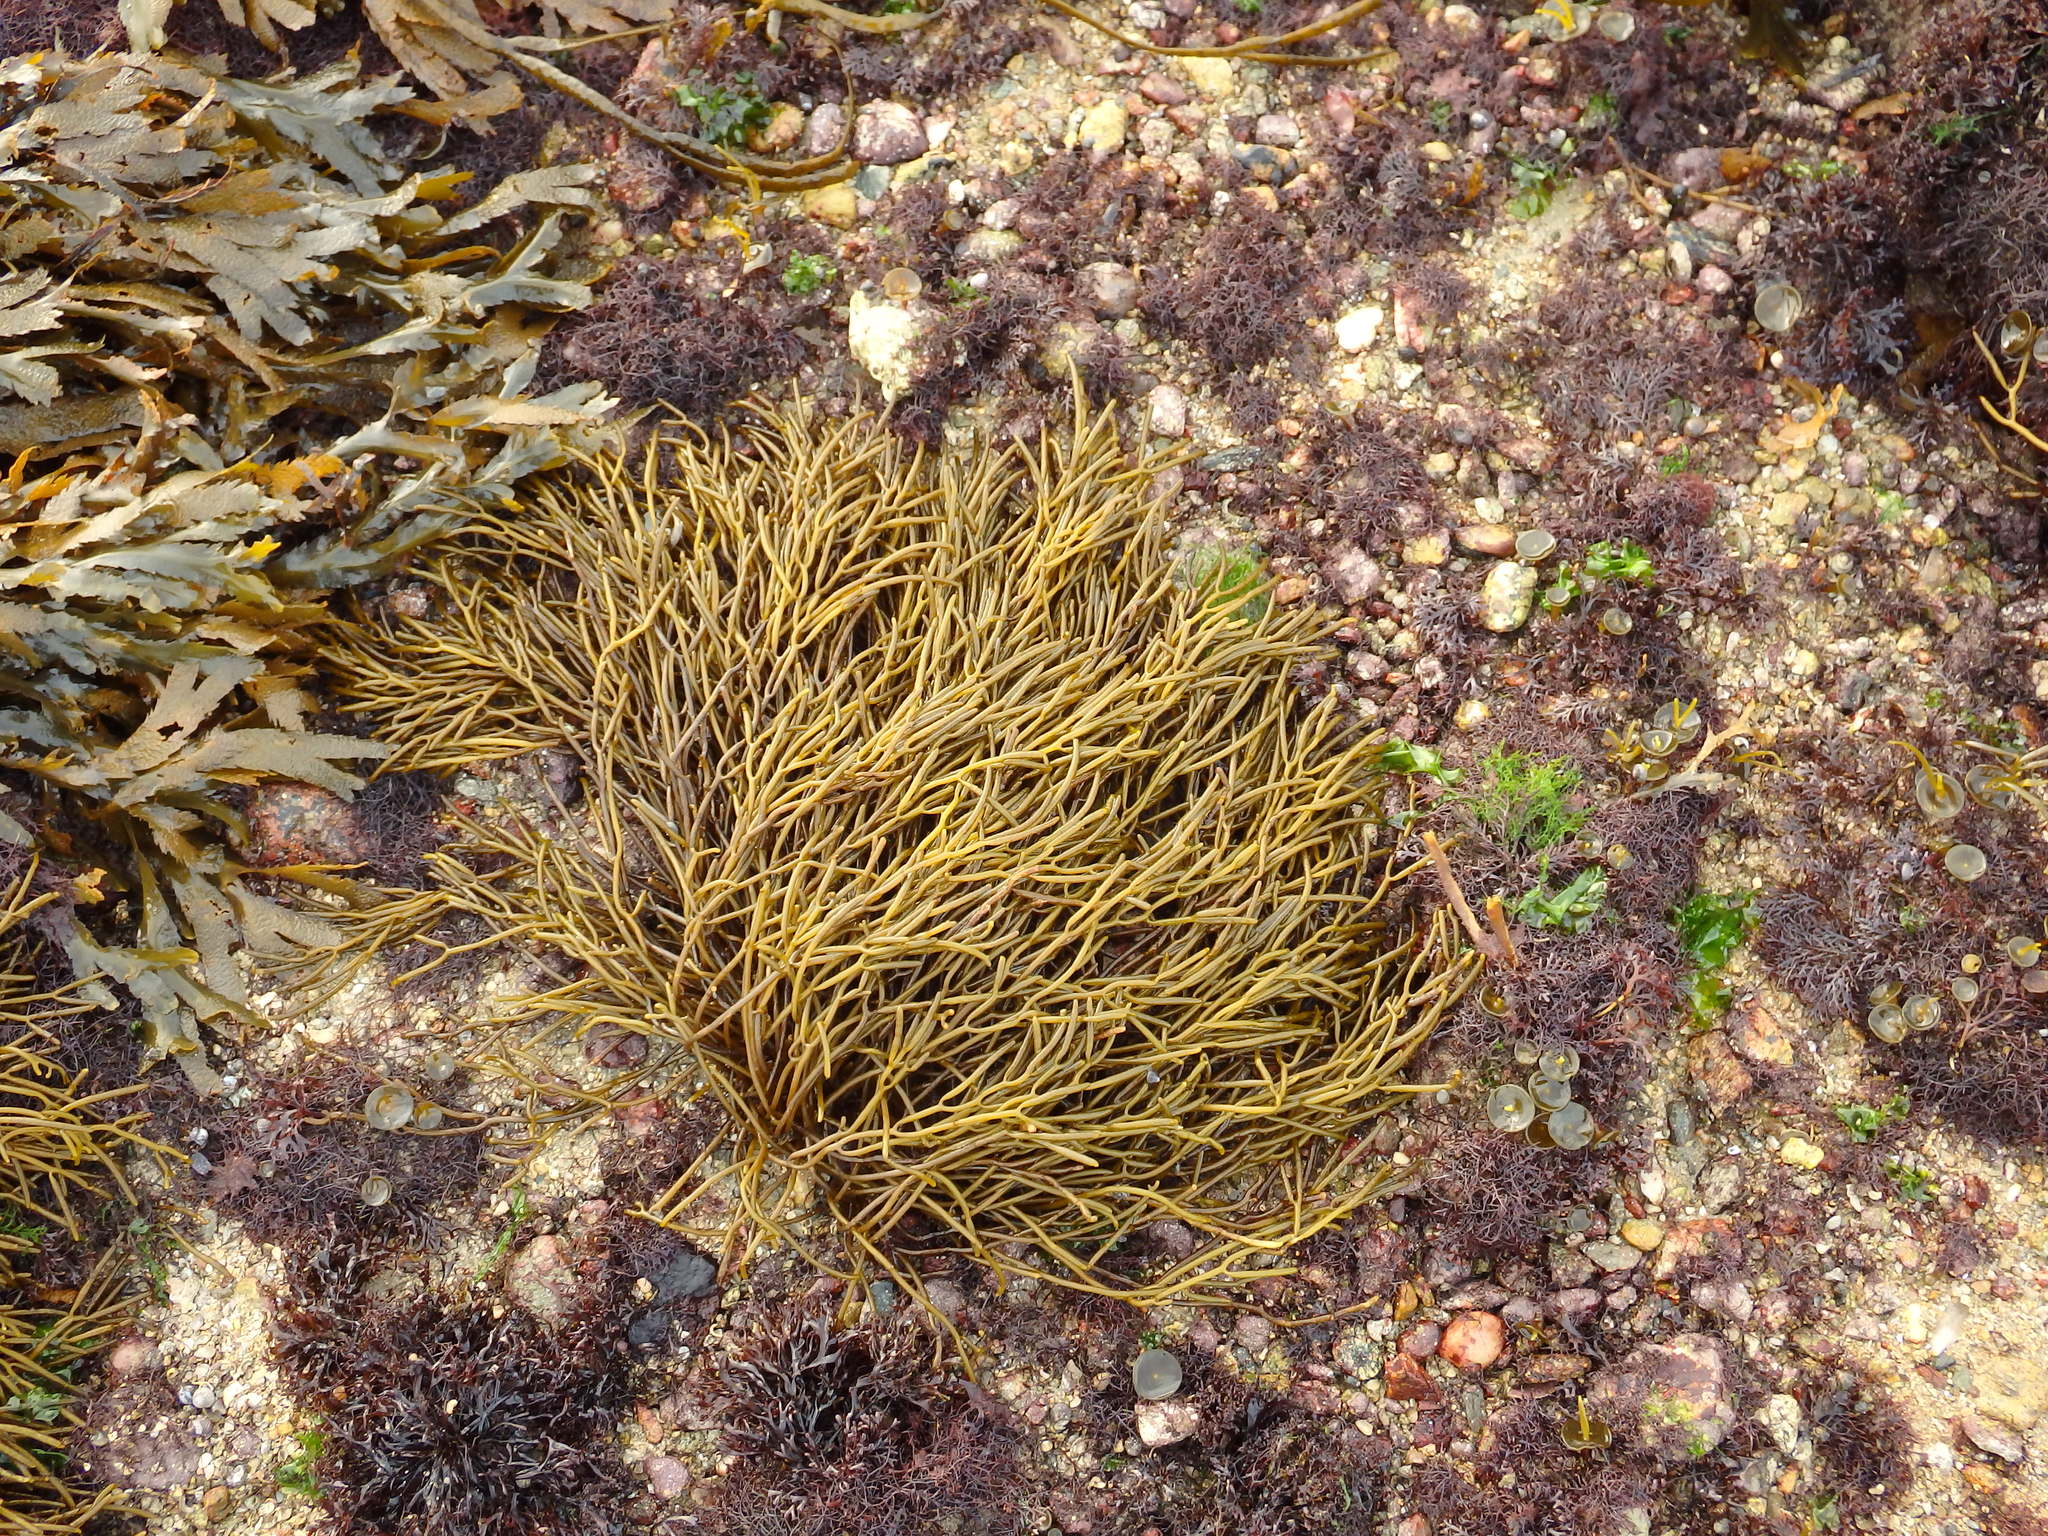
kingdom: Chromista
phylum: Ochrophyta
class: Phaeophyceae
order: Fucales
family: Sargassaceae
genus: Bifurcaria
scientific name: Bifurcaria bifurcata
